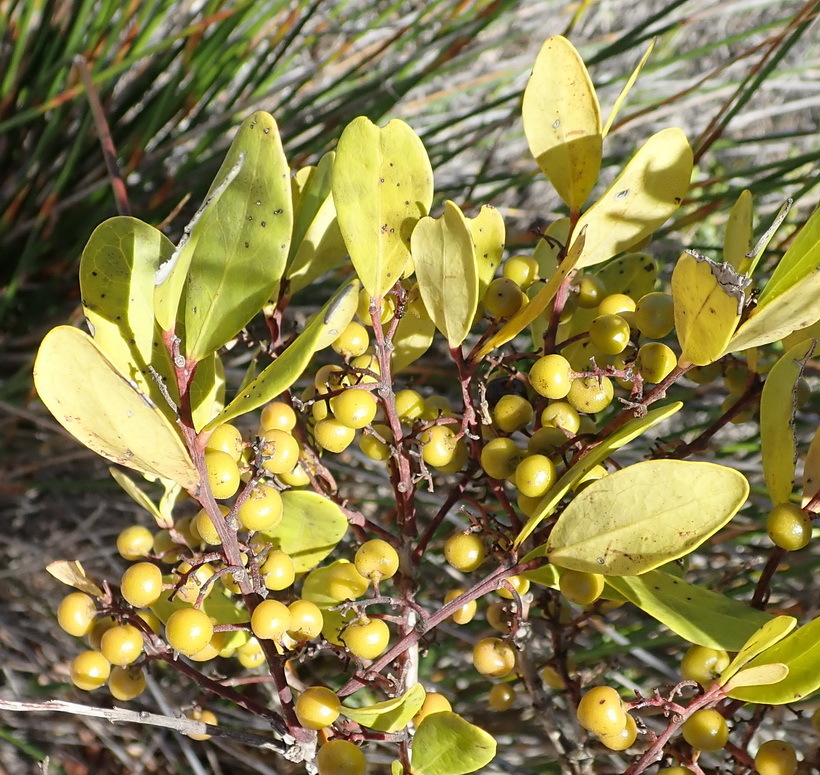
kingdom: Plantae
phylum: Tracheophyta
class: Magnoliopsida
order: Ericales
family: Ebenaceae
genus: Euclea
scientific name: Euclea racemosa
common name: Dune guarri
